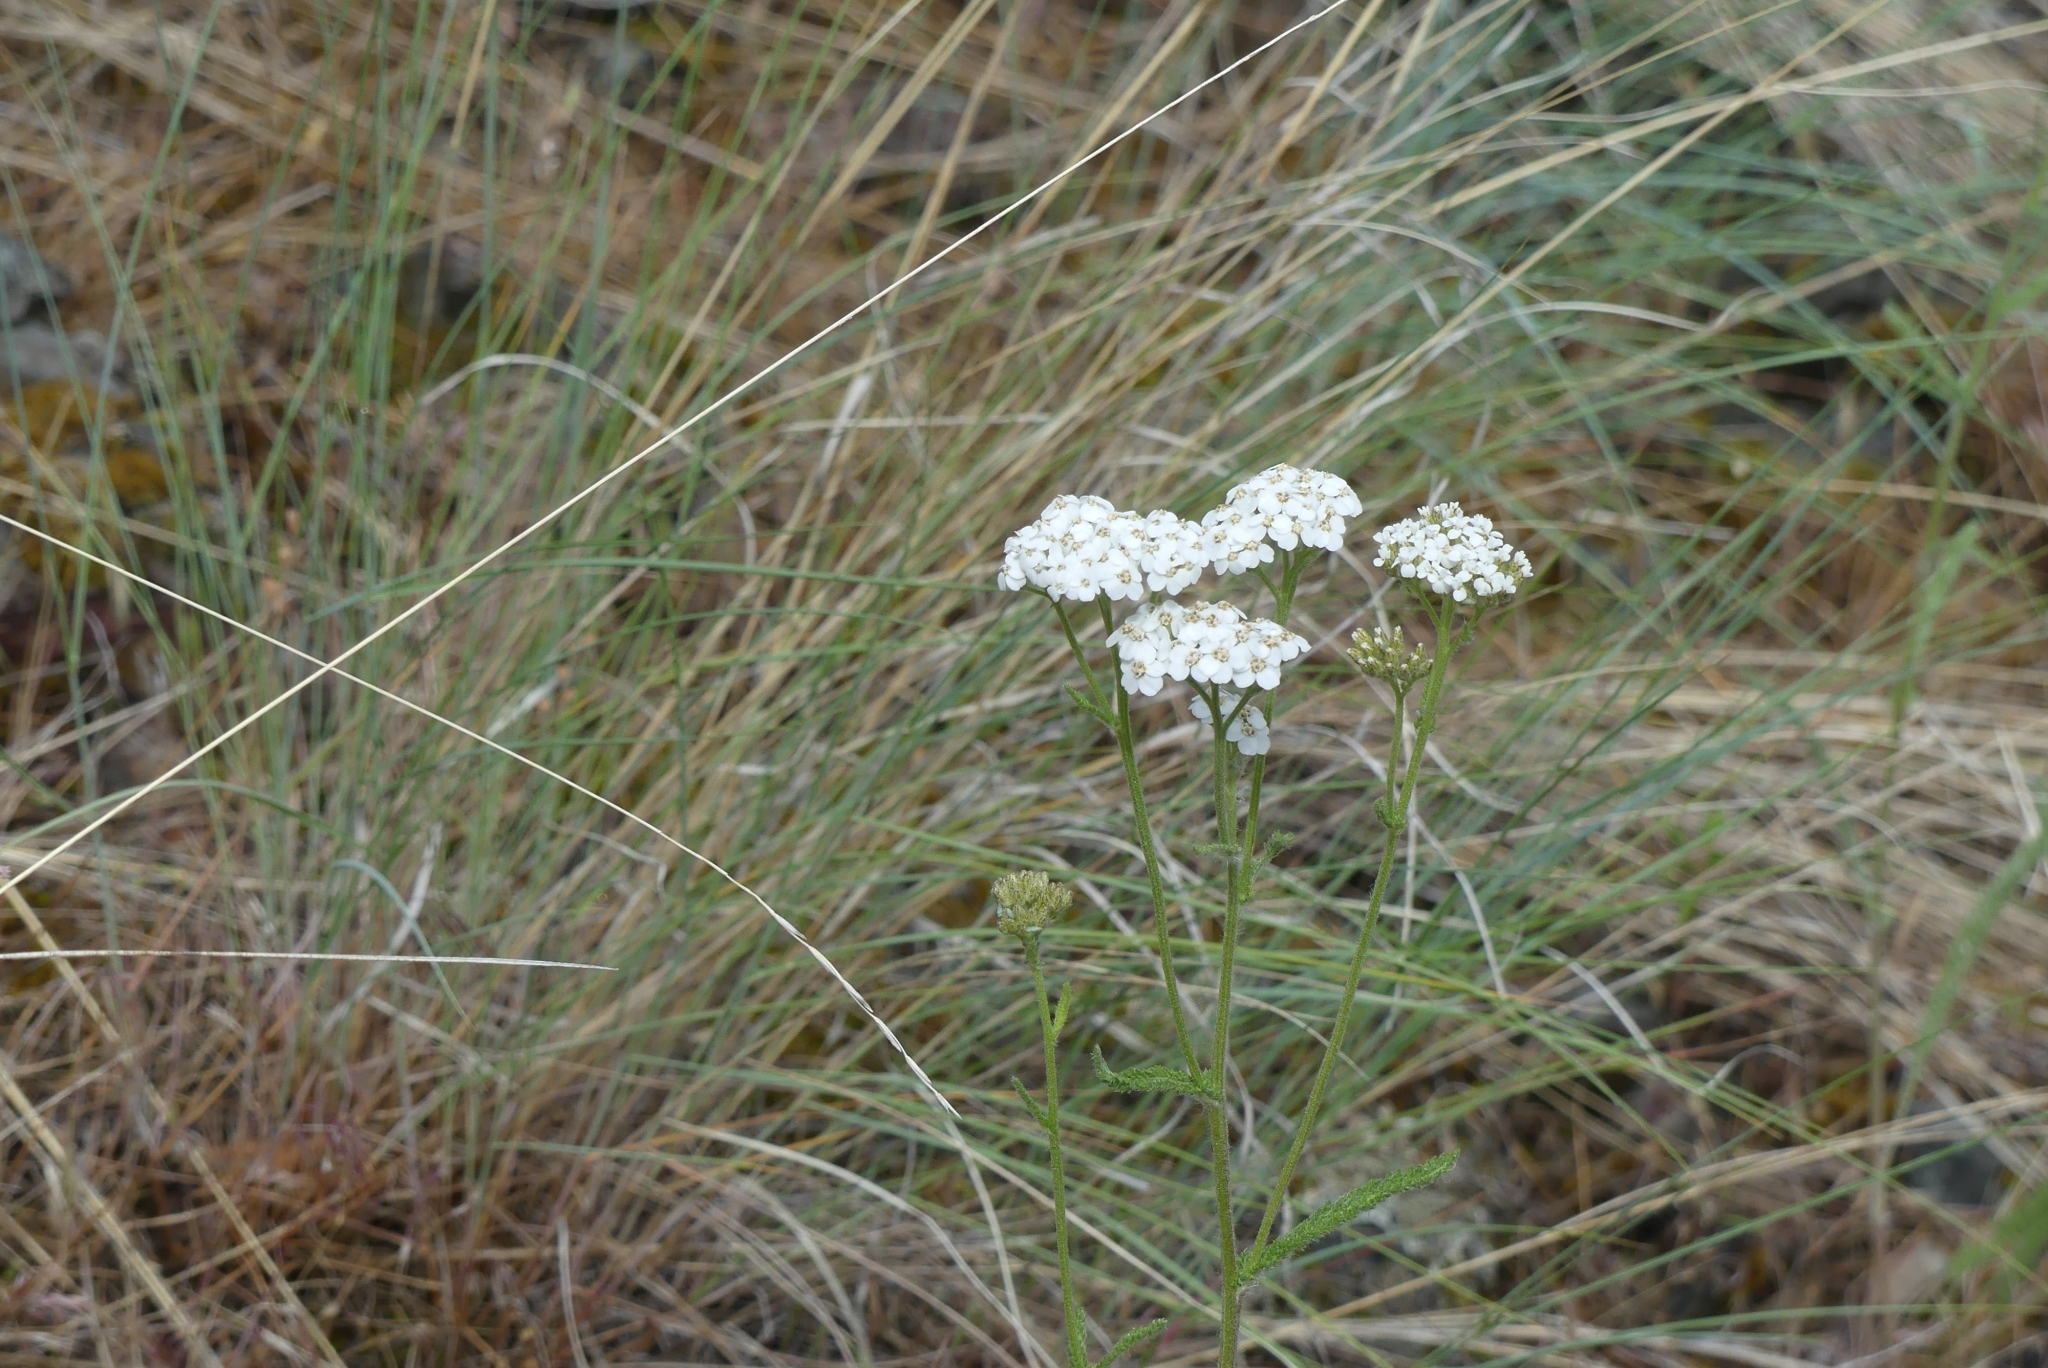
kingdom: Plantae
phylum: Tracheophyta
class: Magnoliopsida
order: Asterales
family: Asteraceae
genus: Achillea
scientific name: Achillea millefolium
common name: Yarrow
